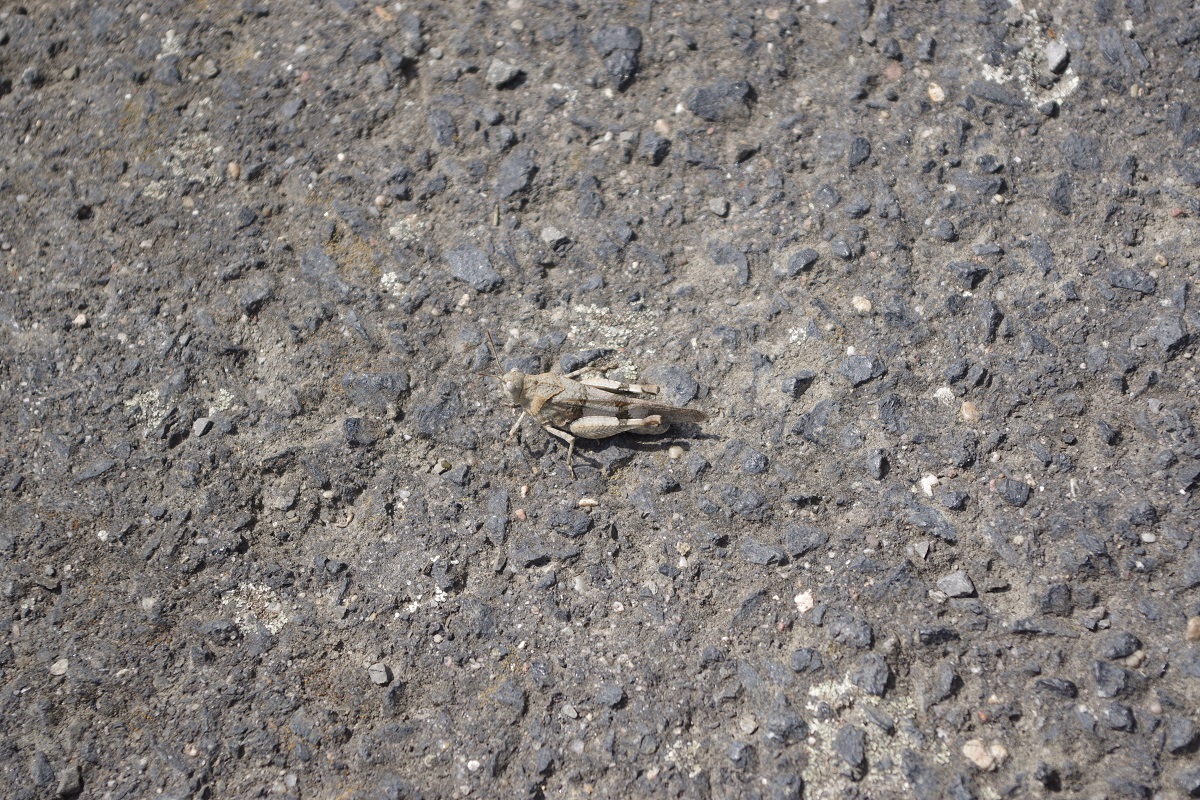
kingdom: Animalia
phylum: Arthropoda
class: Insecta
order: Orthoptera
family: Acrididae
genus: Oedipoda
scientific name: Oedipoda germanica
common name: Red band-winged grasshopper
